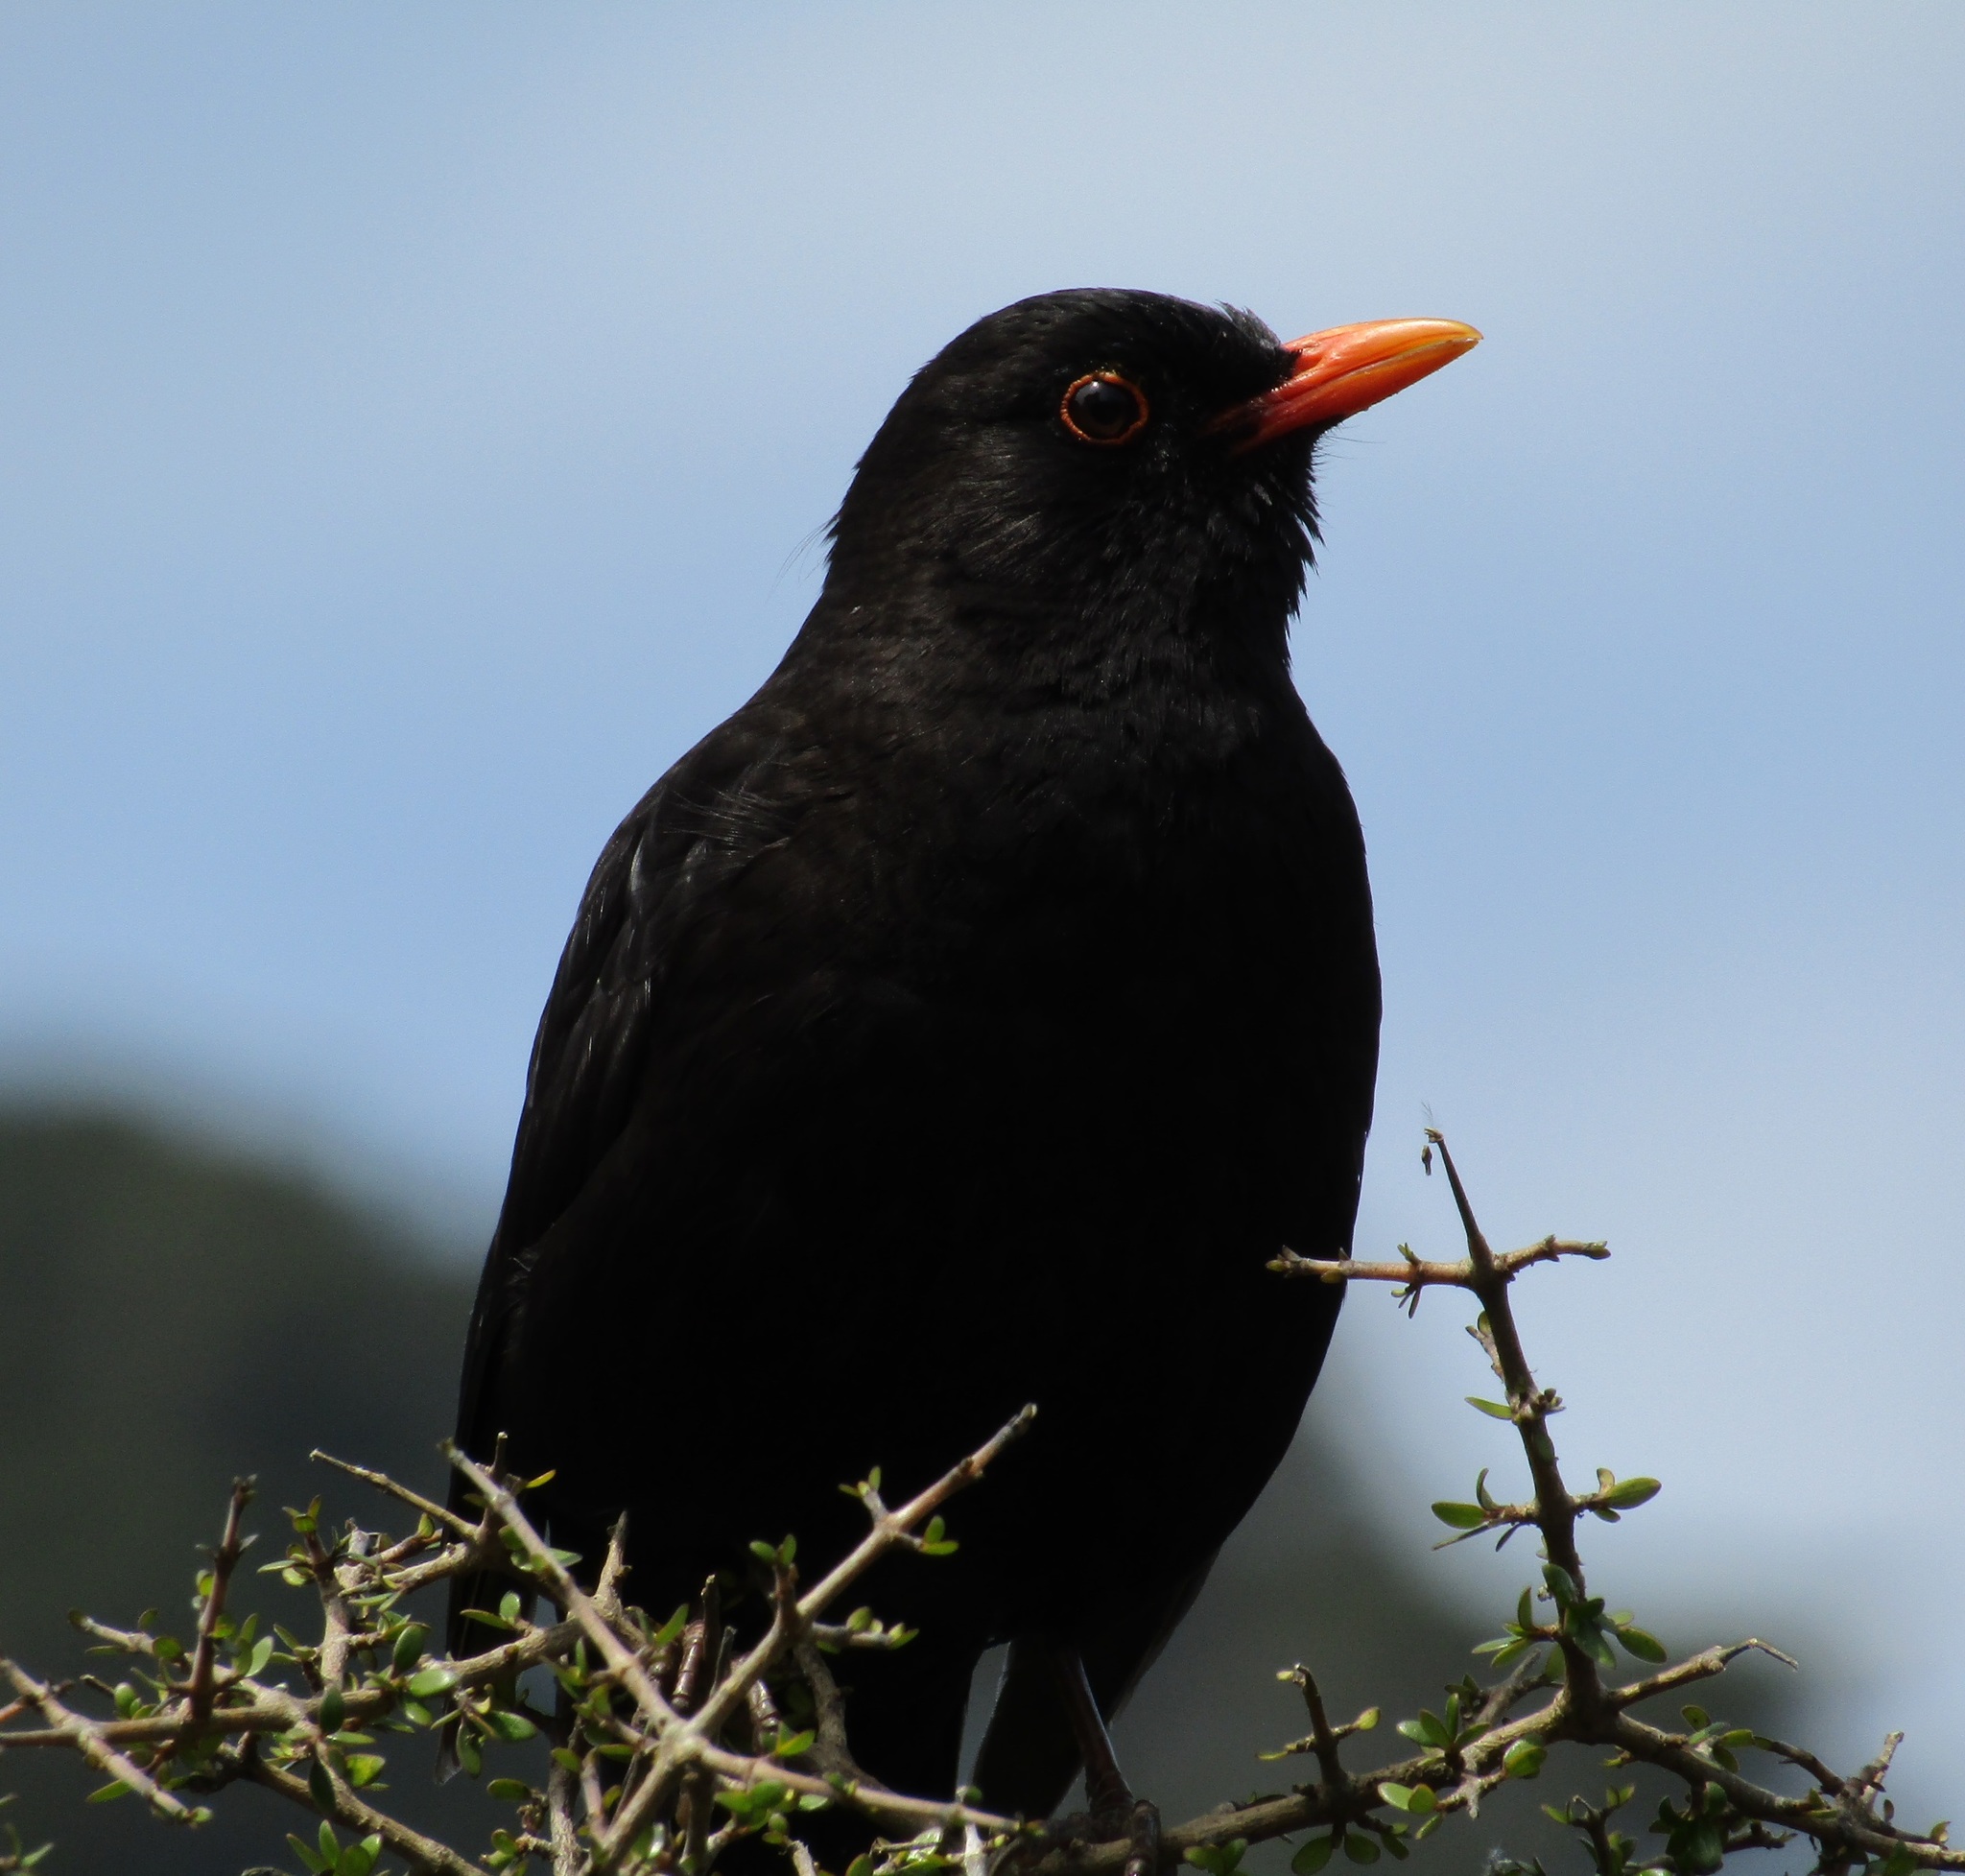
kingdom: Animalia
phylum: Chordata
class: Aves
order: Passeriformes
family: Turdidae
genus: Turdus
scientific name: Turdus merula
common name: Common blackbird
